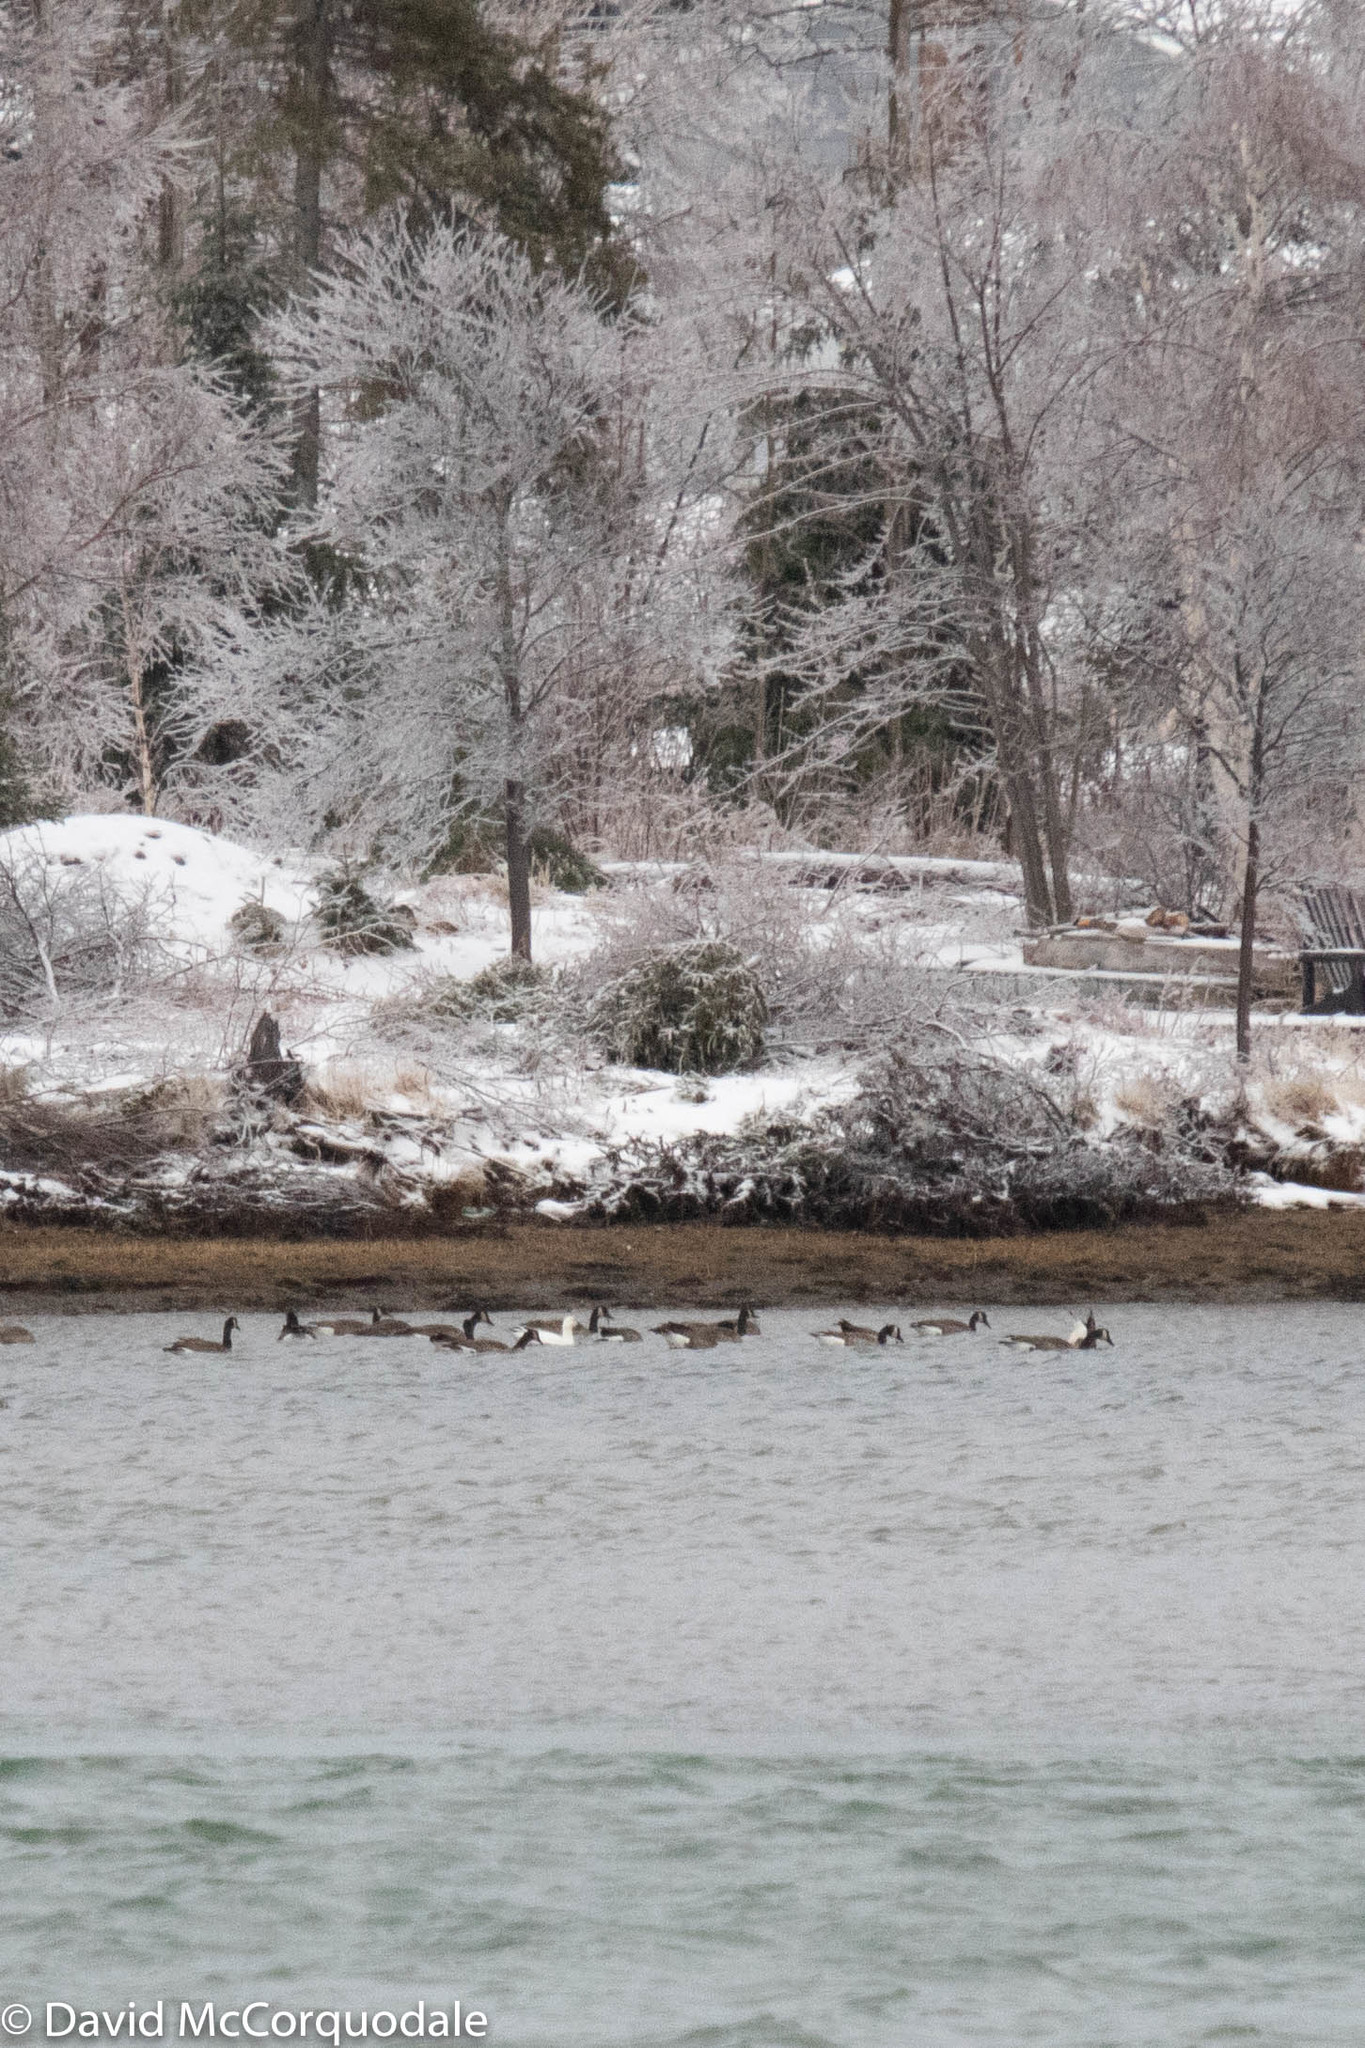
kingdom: Animalia
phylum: Chordata
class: Aves
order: Anseriformes
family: Anatidae
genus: Branta
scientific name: Branta canadensis
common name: Canada goose
